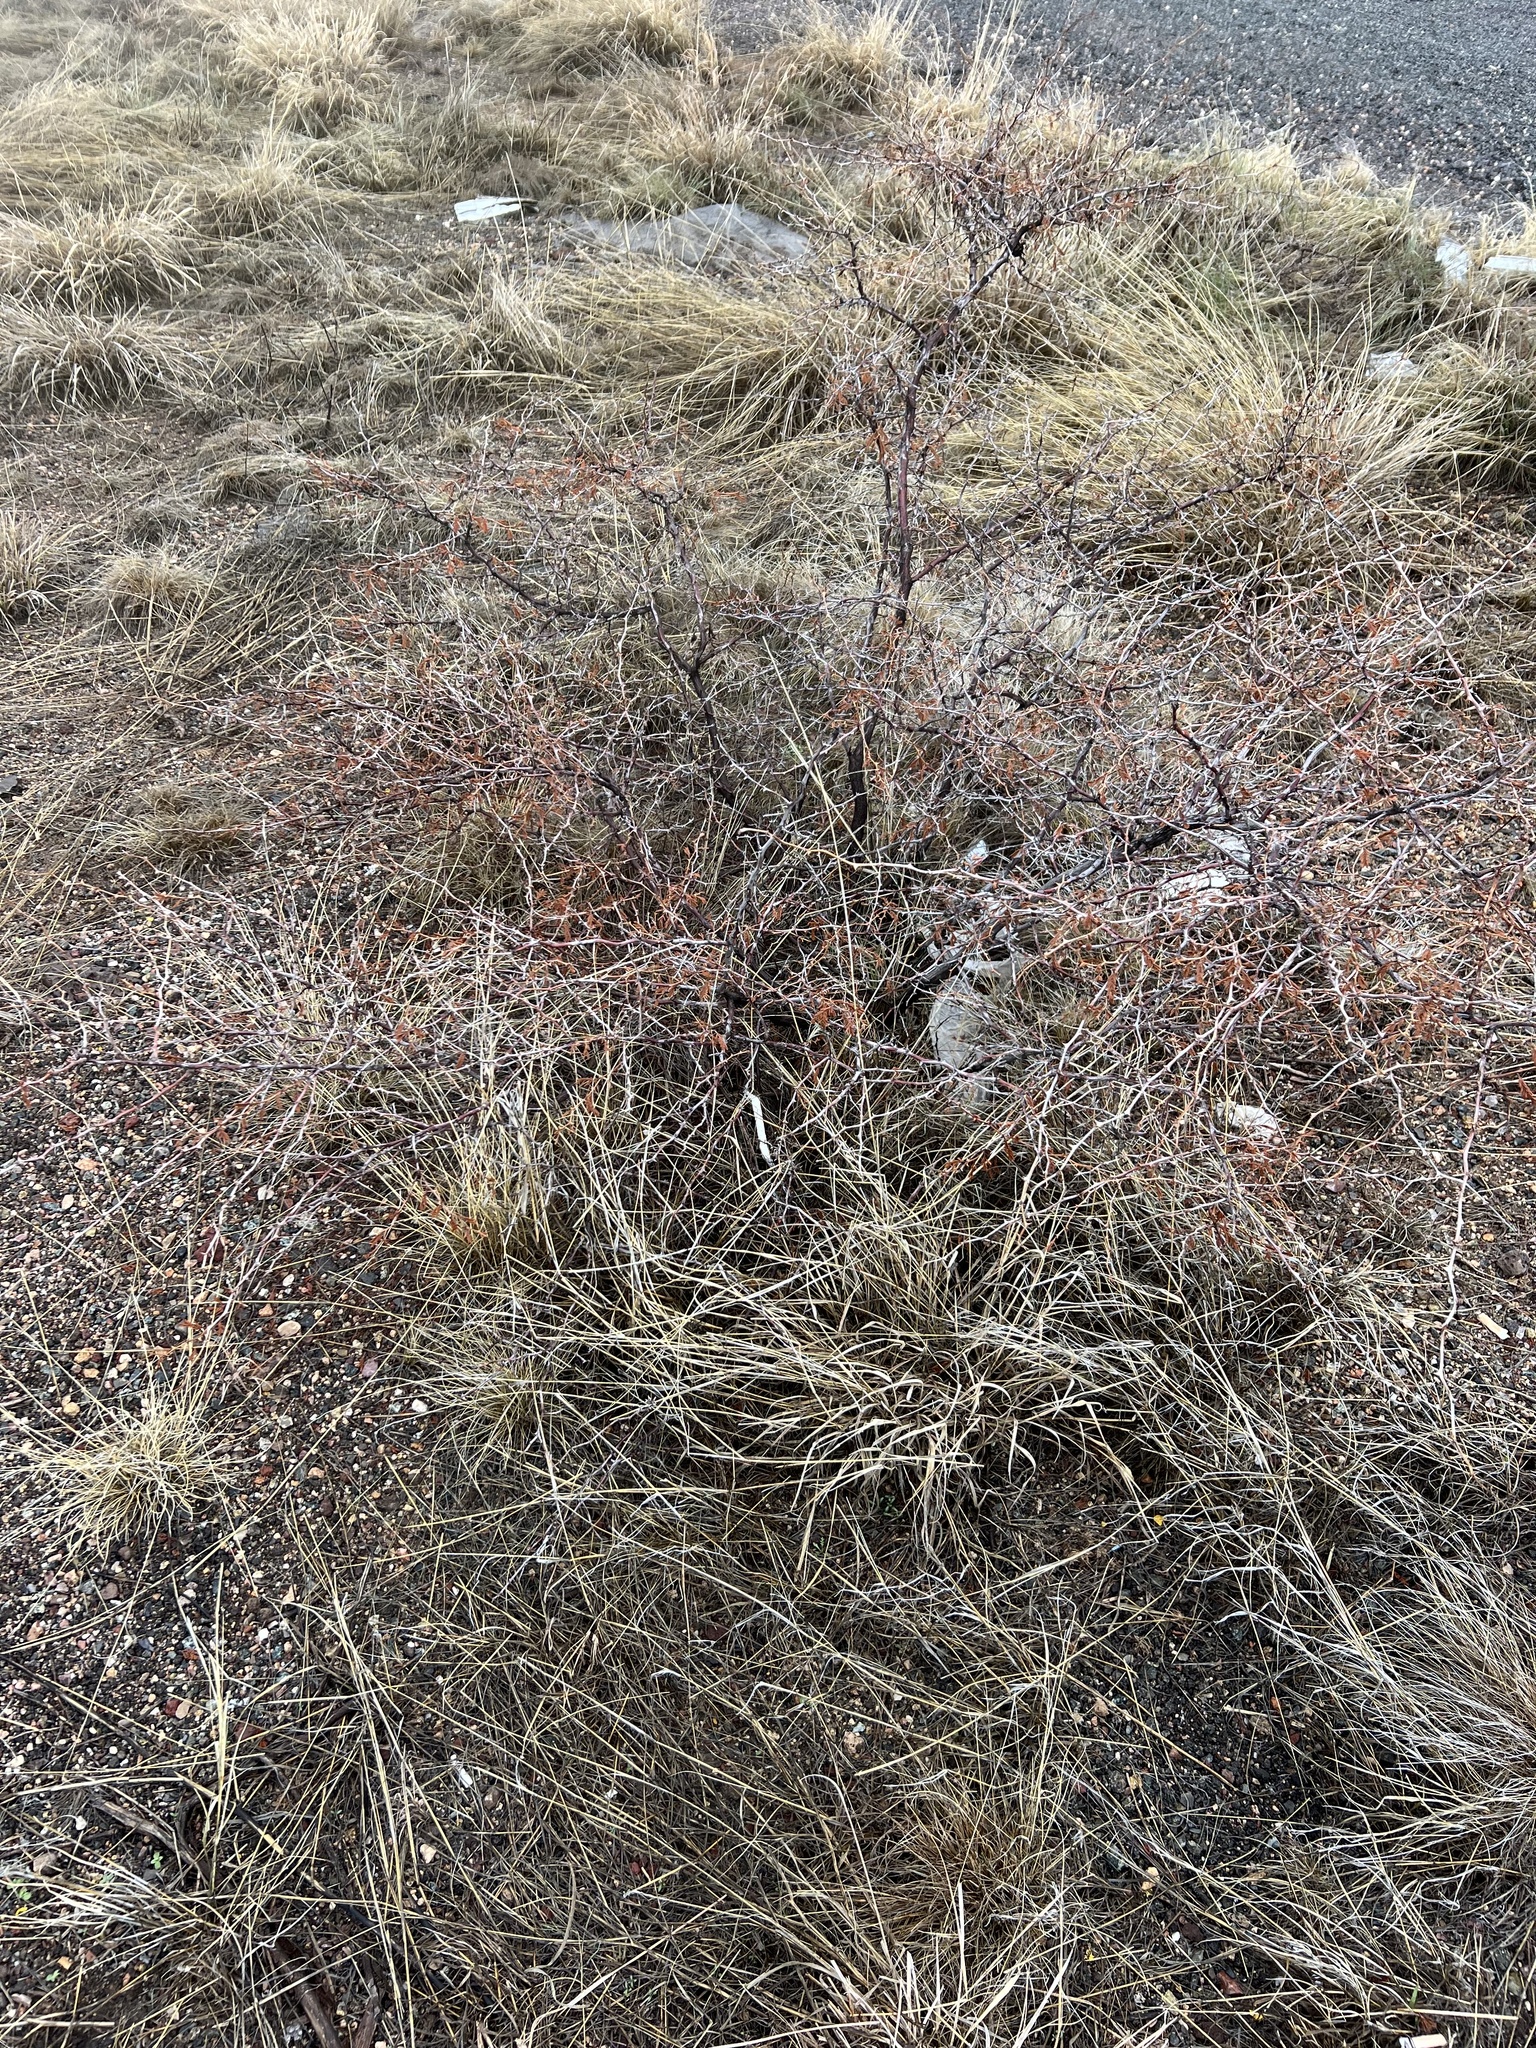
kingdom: Plantae
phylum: Tracheophyta
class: Magnoliopsida
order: Fabales
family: Fabaceae
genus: Mimosa
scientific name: Mimosa aculeaticarpa
